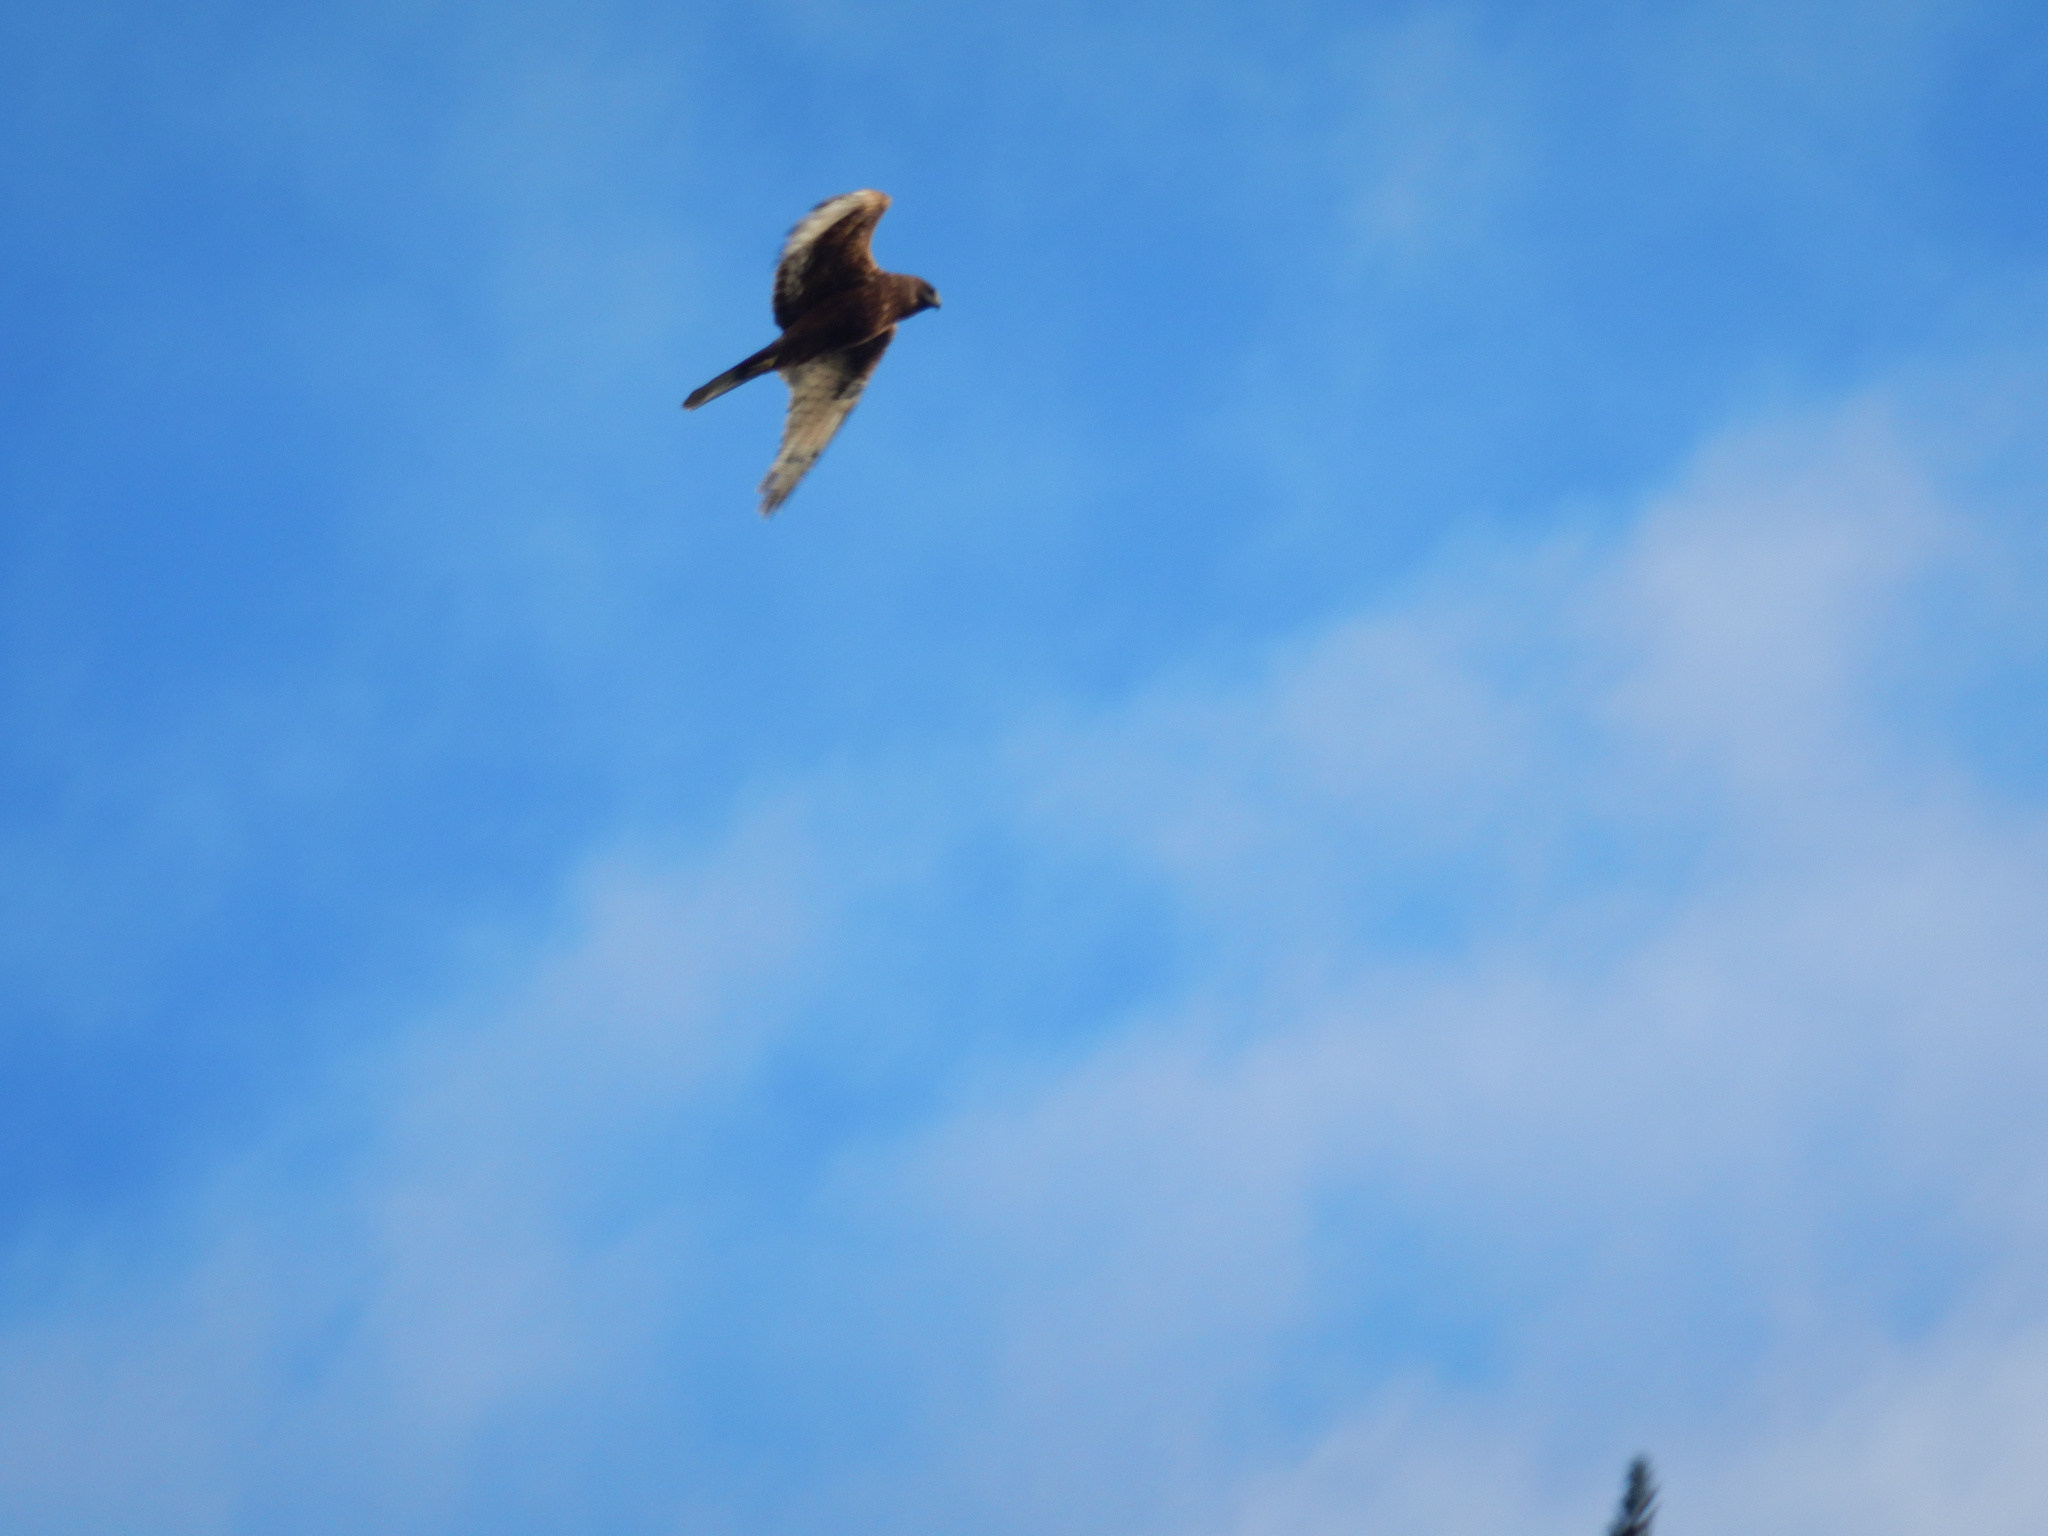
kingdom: Animalia
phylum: Chordata
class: Aves
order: Accipitriformes
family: Accipitridae
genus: Circus
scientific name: Circus approximans
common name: Swamp harrier
